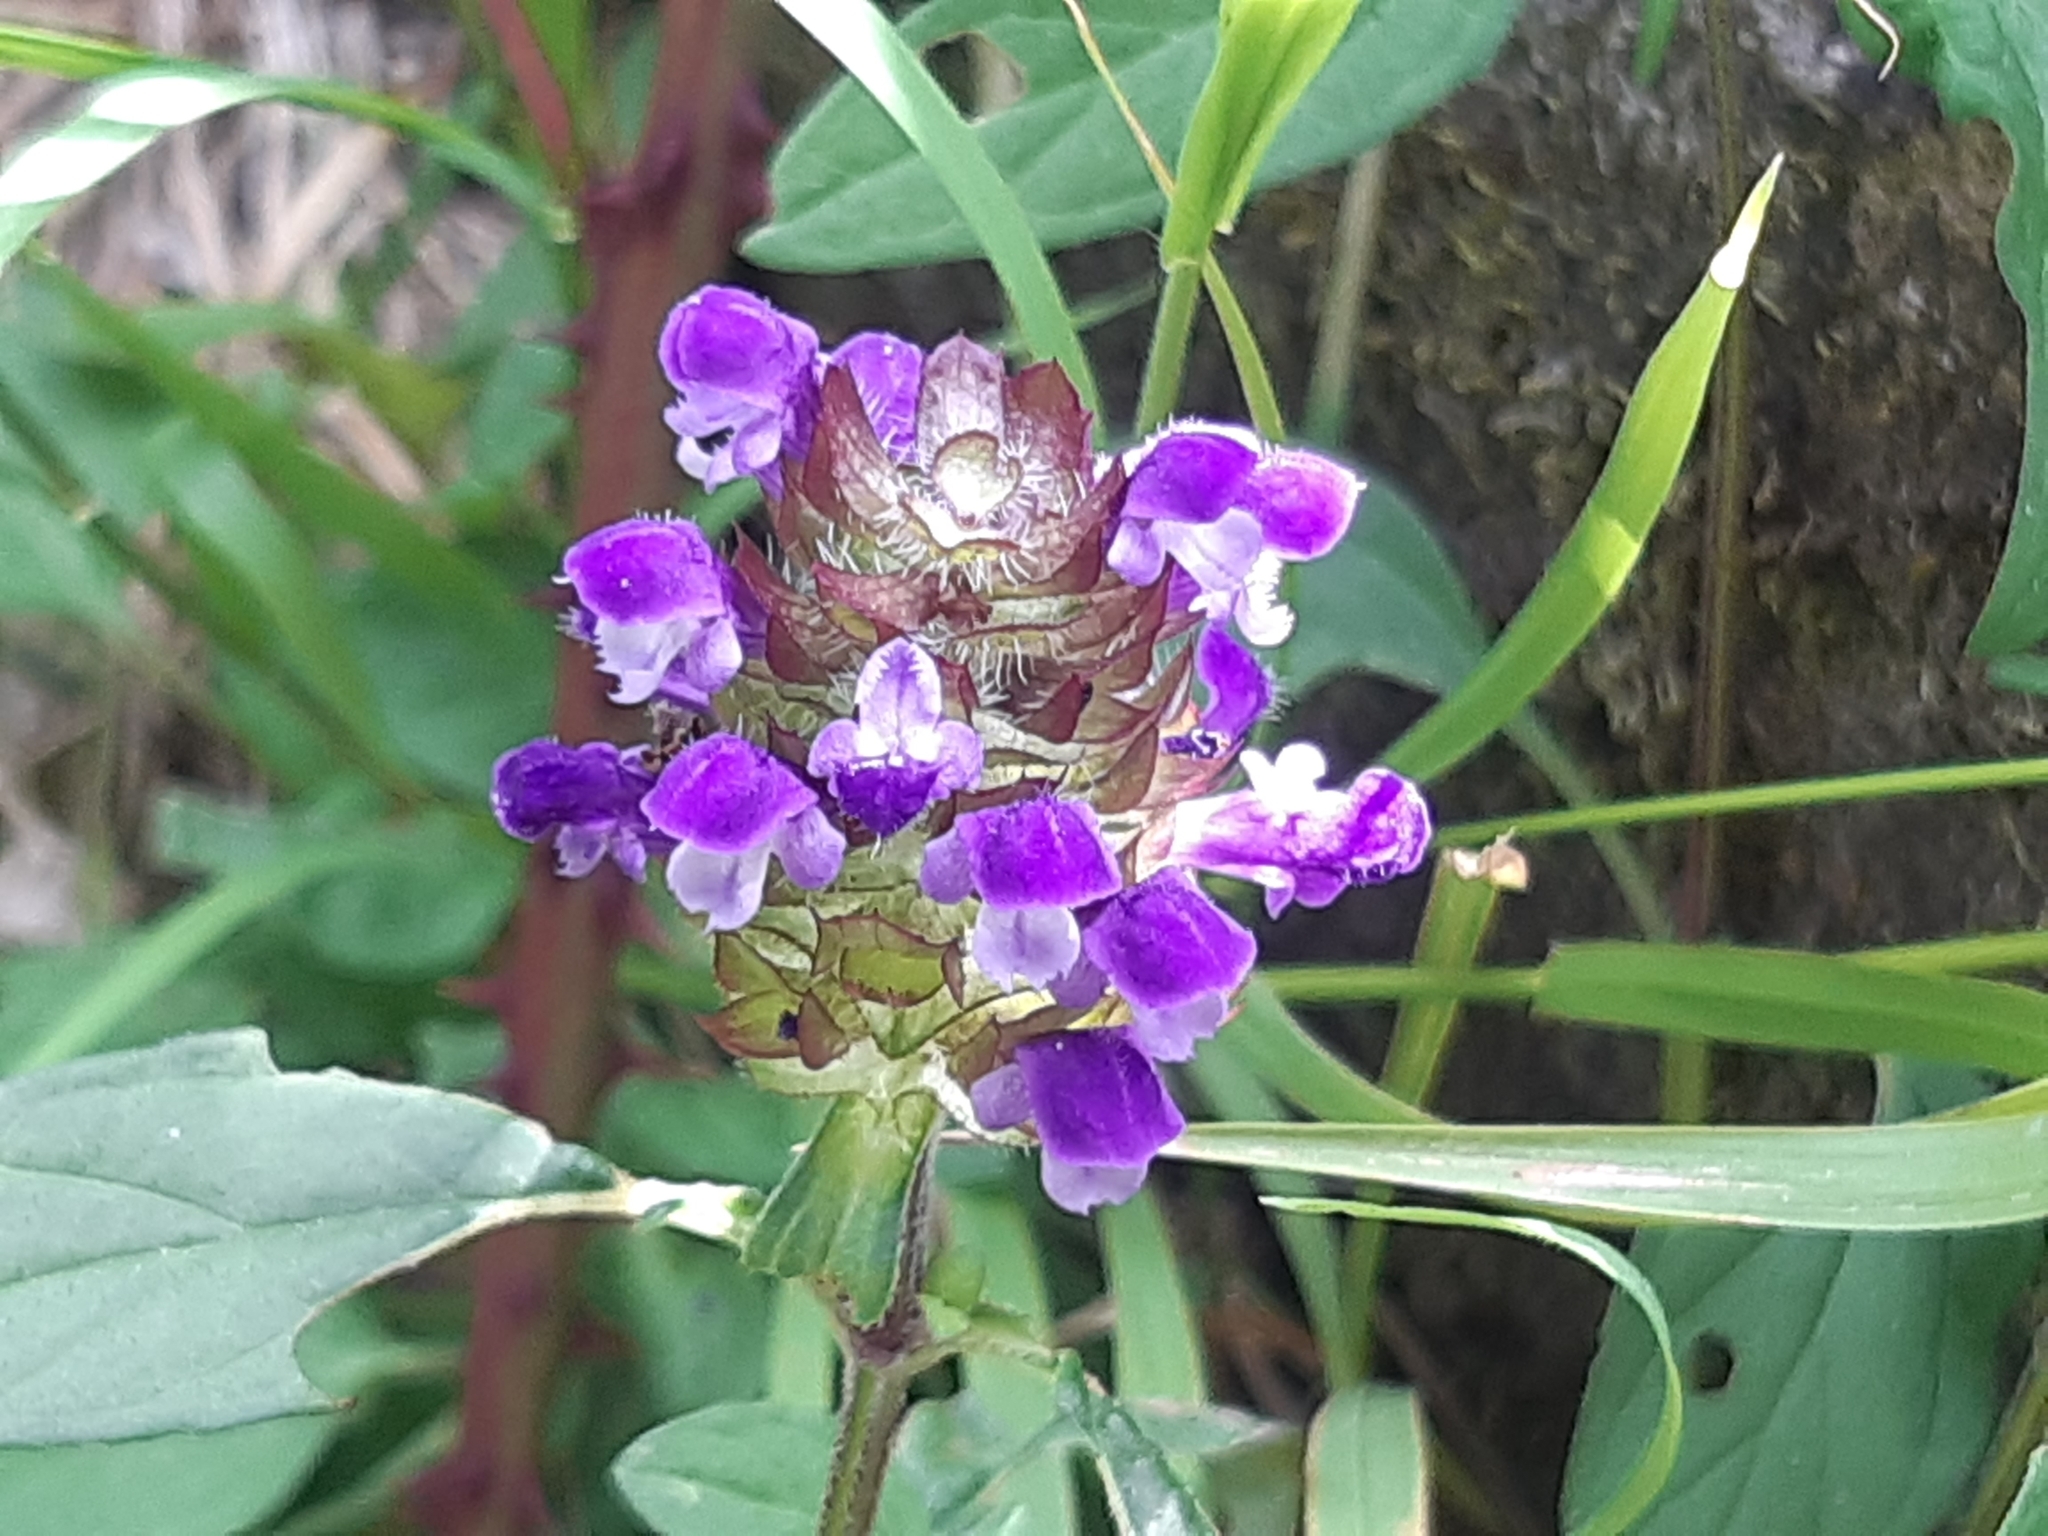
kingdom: Plantae
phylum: Tracheophyta
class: Magnoliopsida
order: Lamiales
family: Lamiaceae
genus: Prunella
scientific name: Prunella vulgaris
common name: Heal-all
